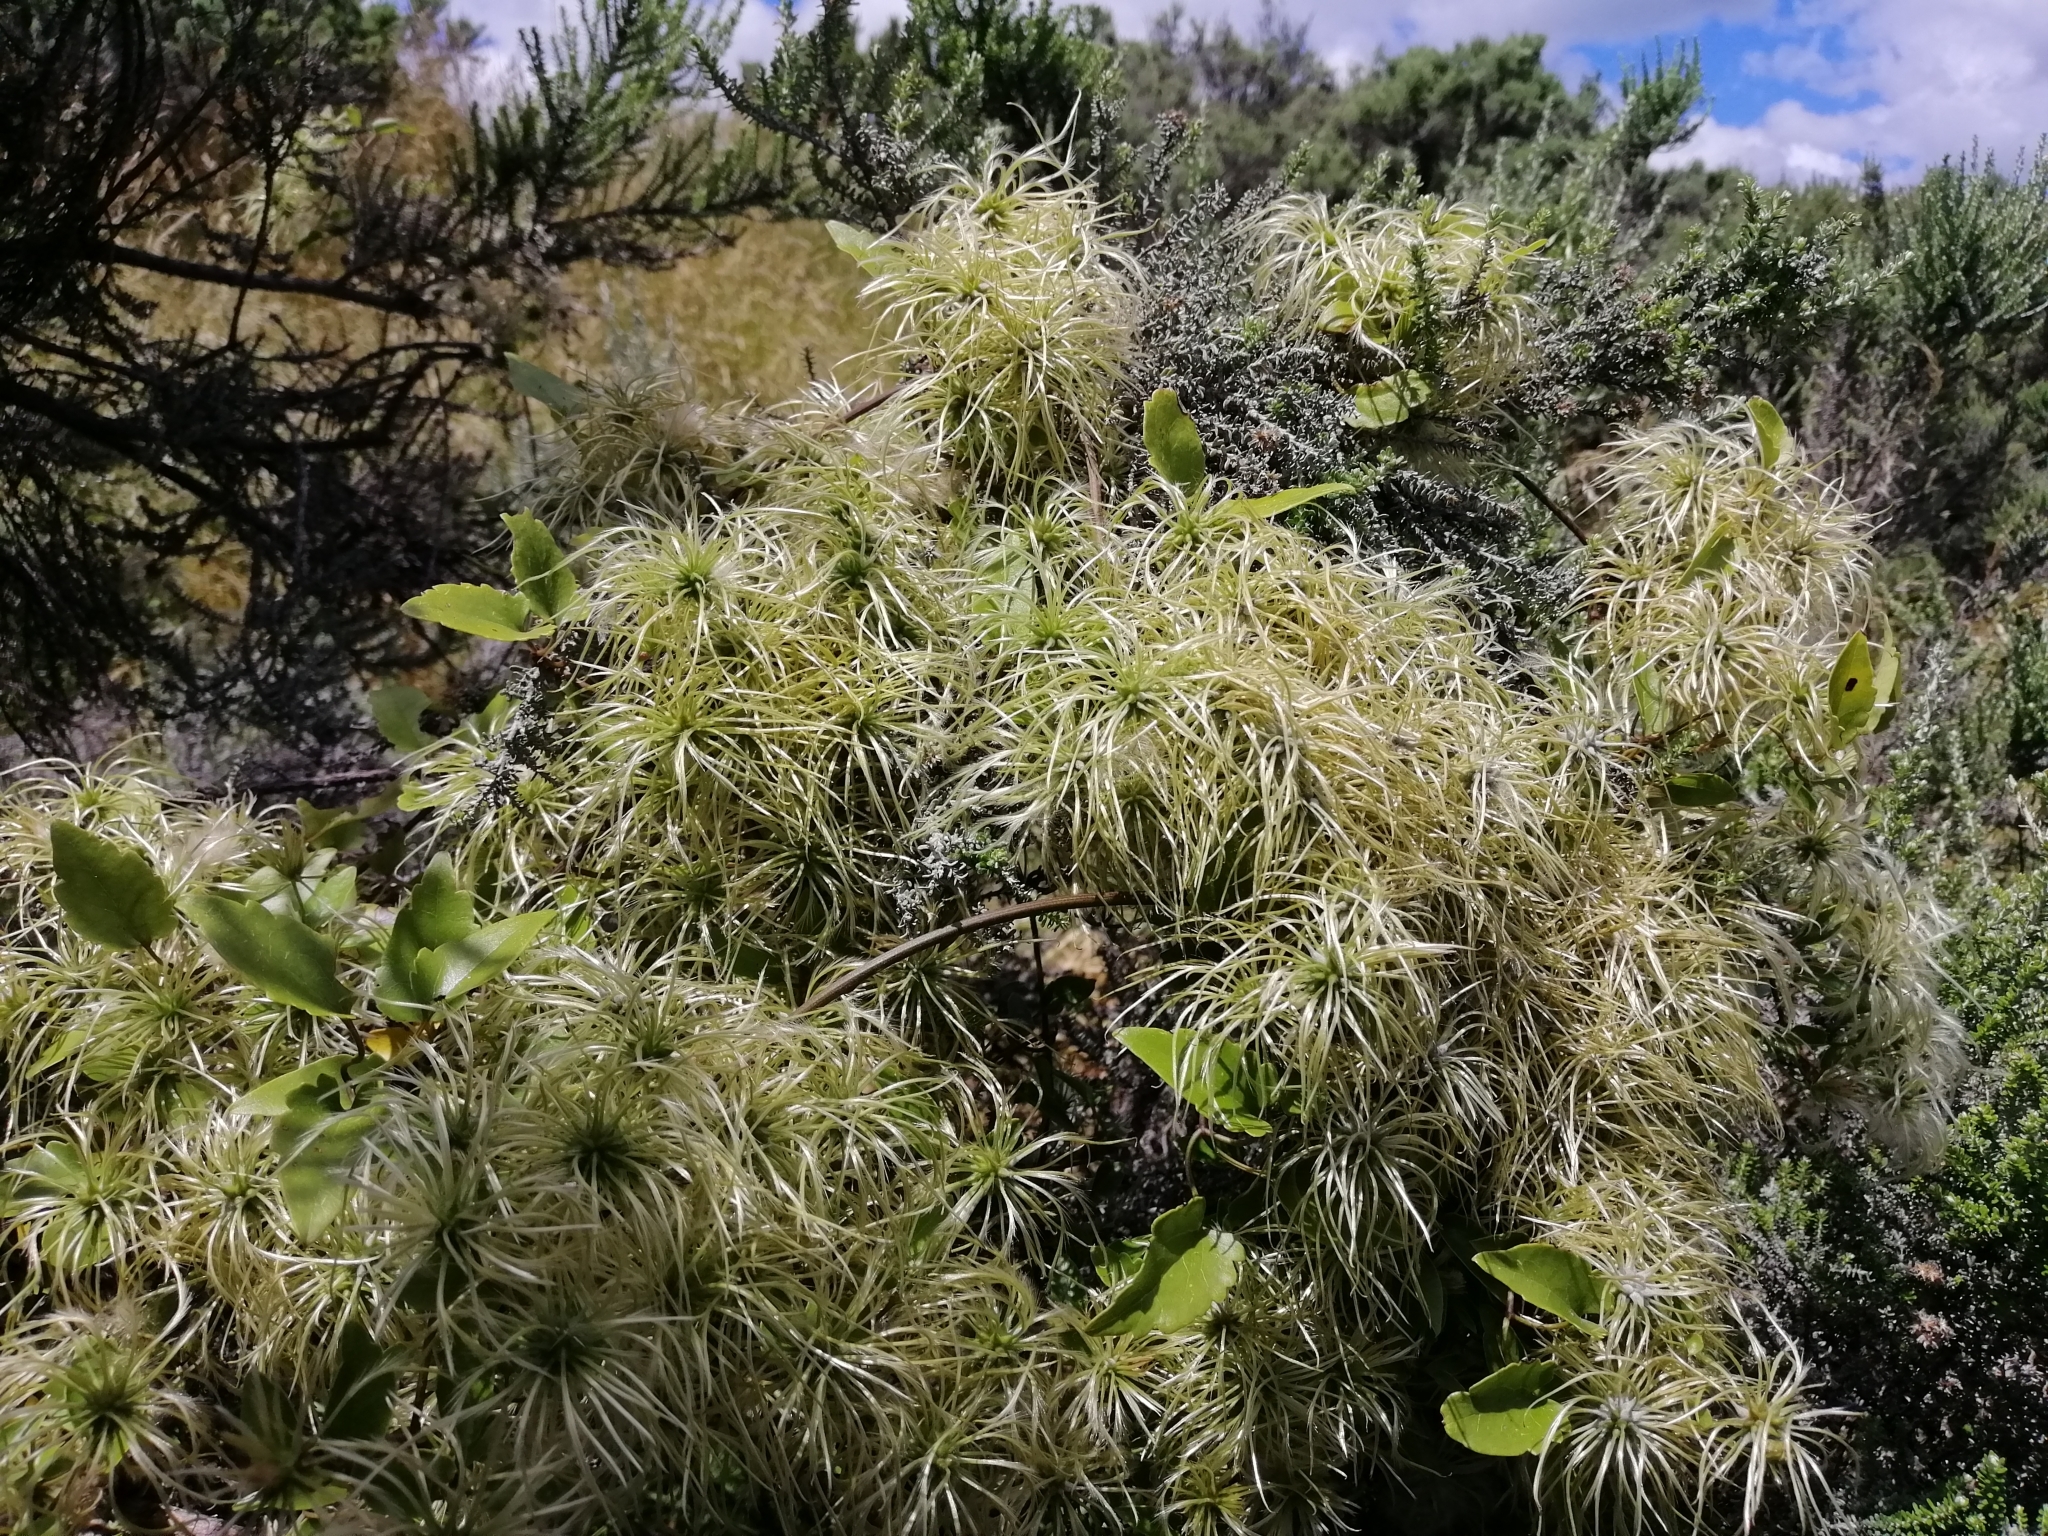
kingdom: Plantae
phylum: Tracheophyta
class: Magnoliopsida
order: Ranunculales
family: Ranunculaceae
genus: Clematis
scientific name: Clematis forsteri
